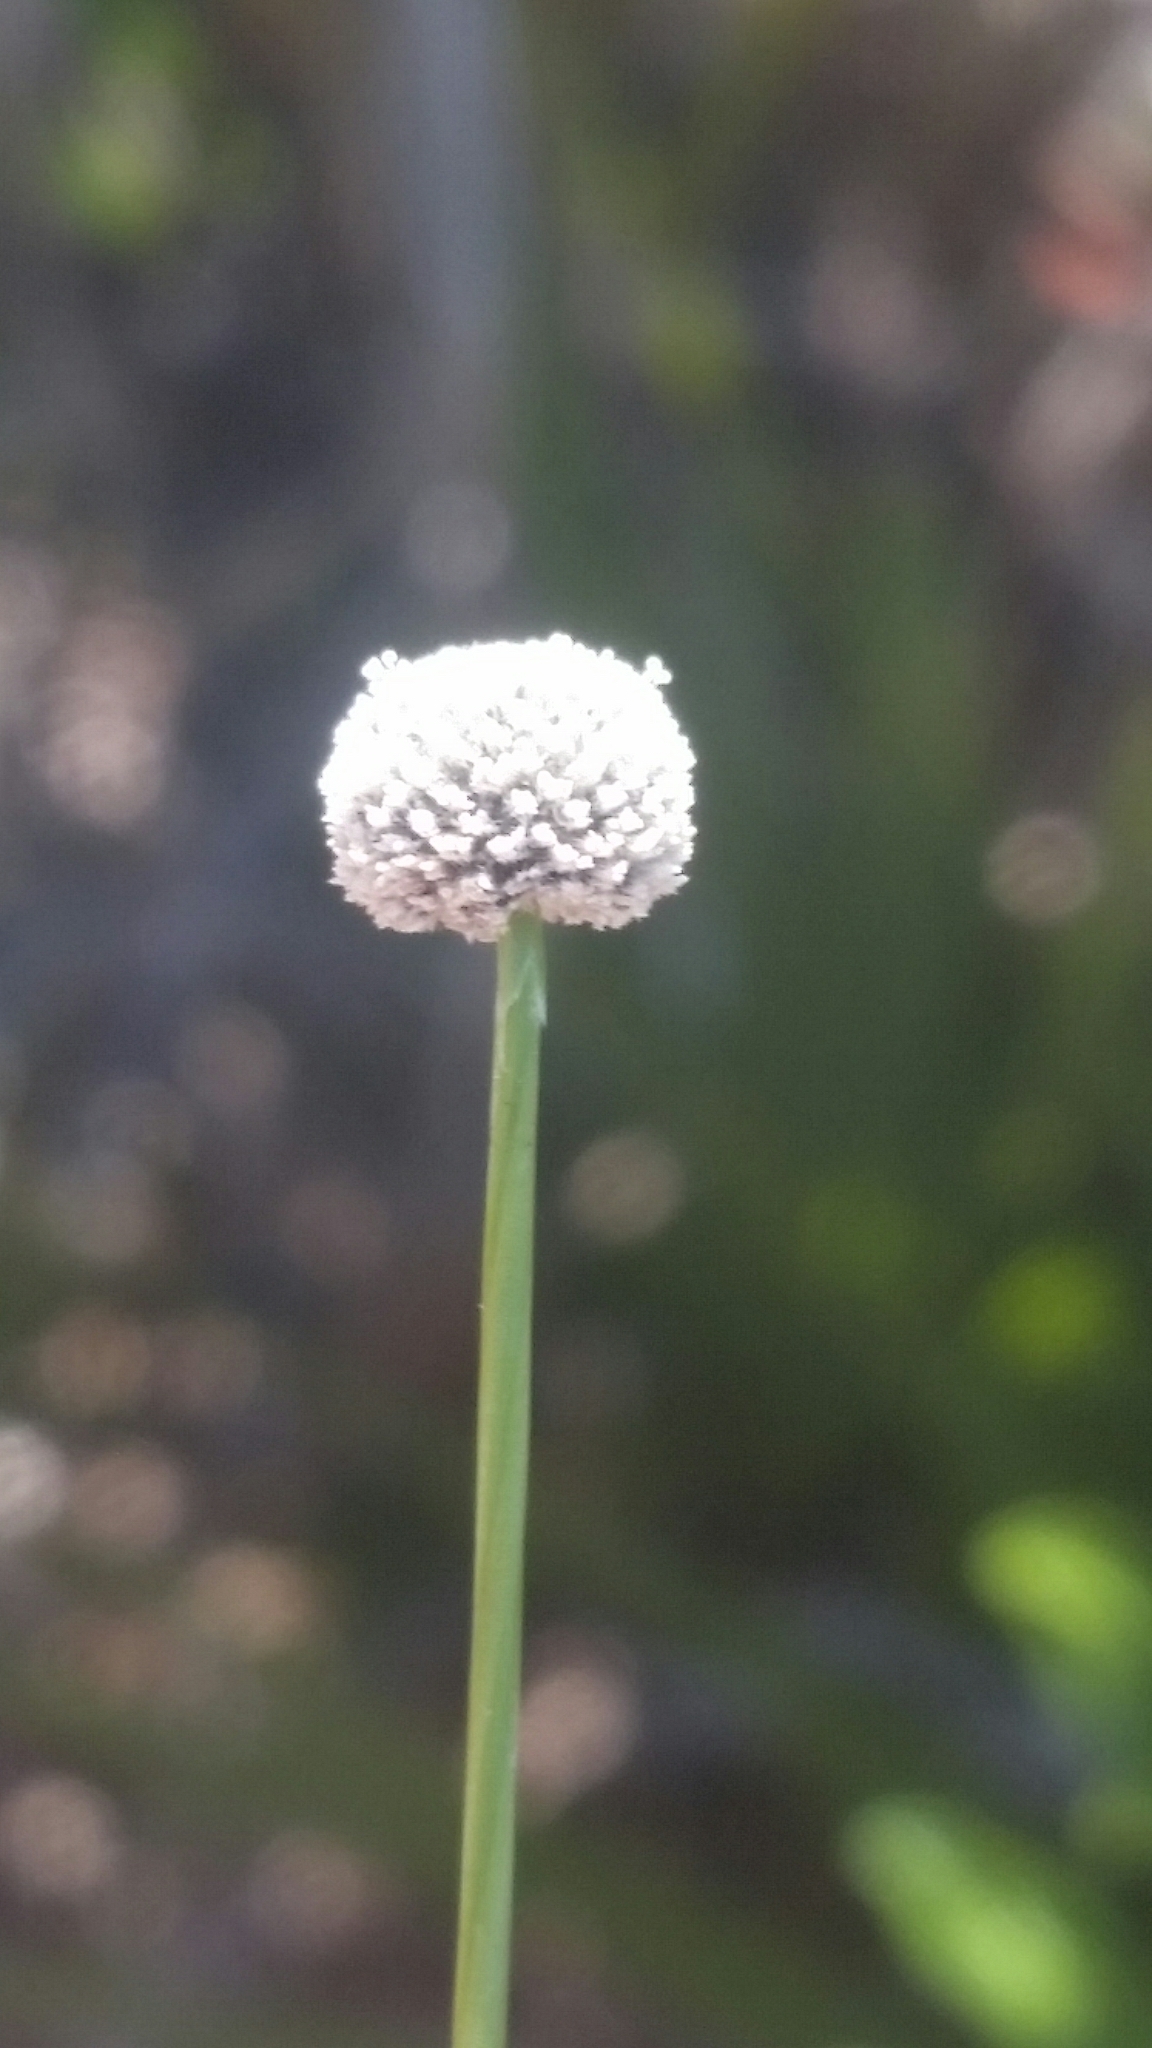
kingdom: Plantae
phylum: Tracheophyta
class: Liliopsida
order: Poales
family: Eriocaulaceae
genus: Paepalanthus
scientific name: Paepalanthus anceps
